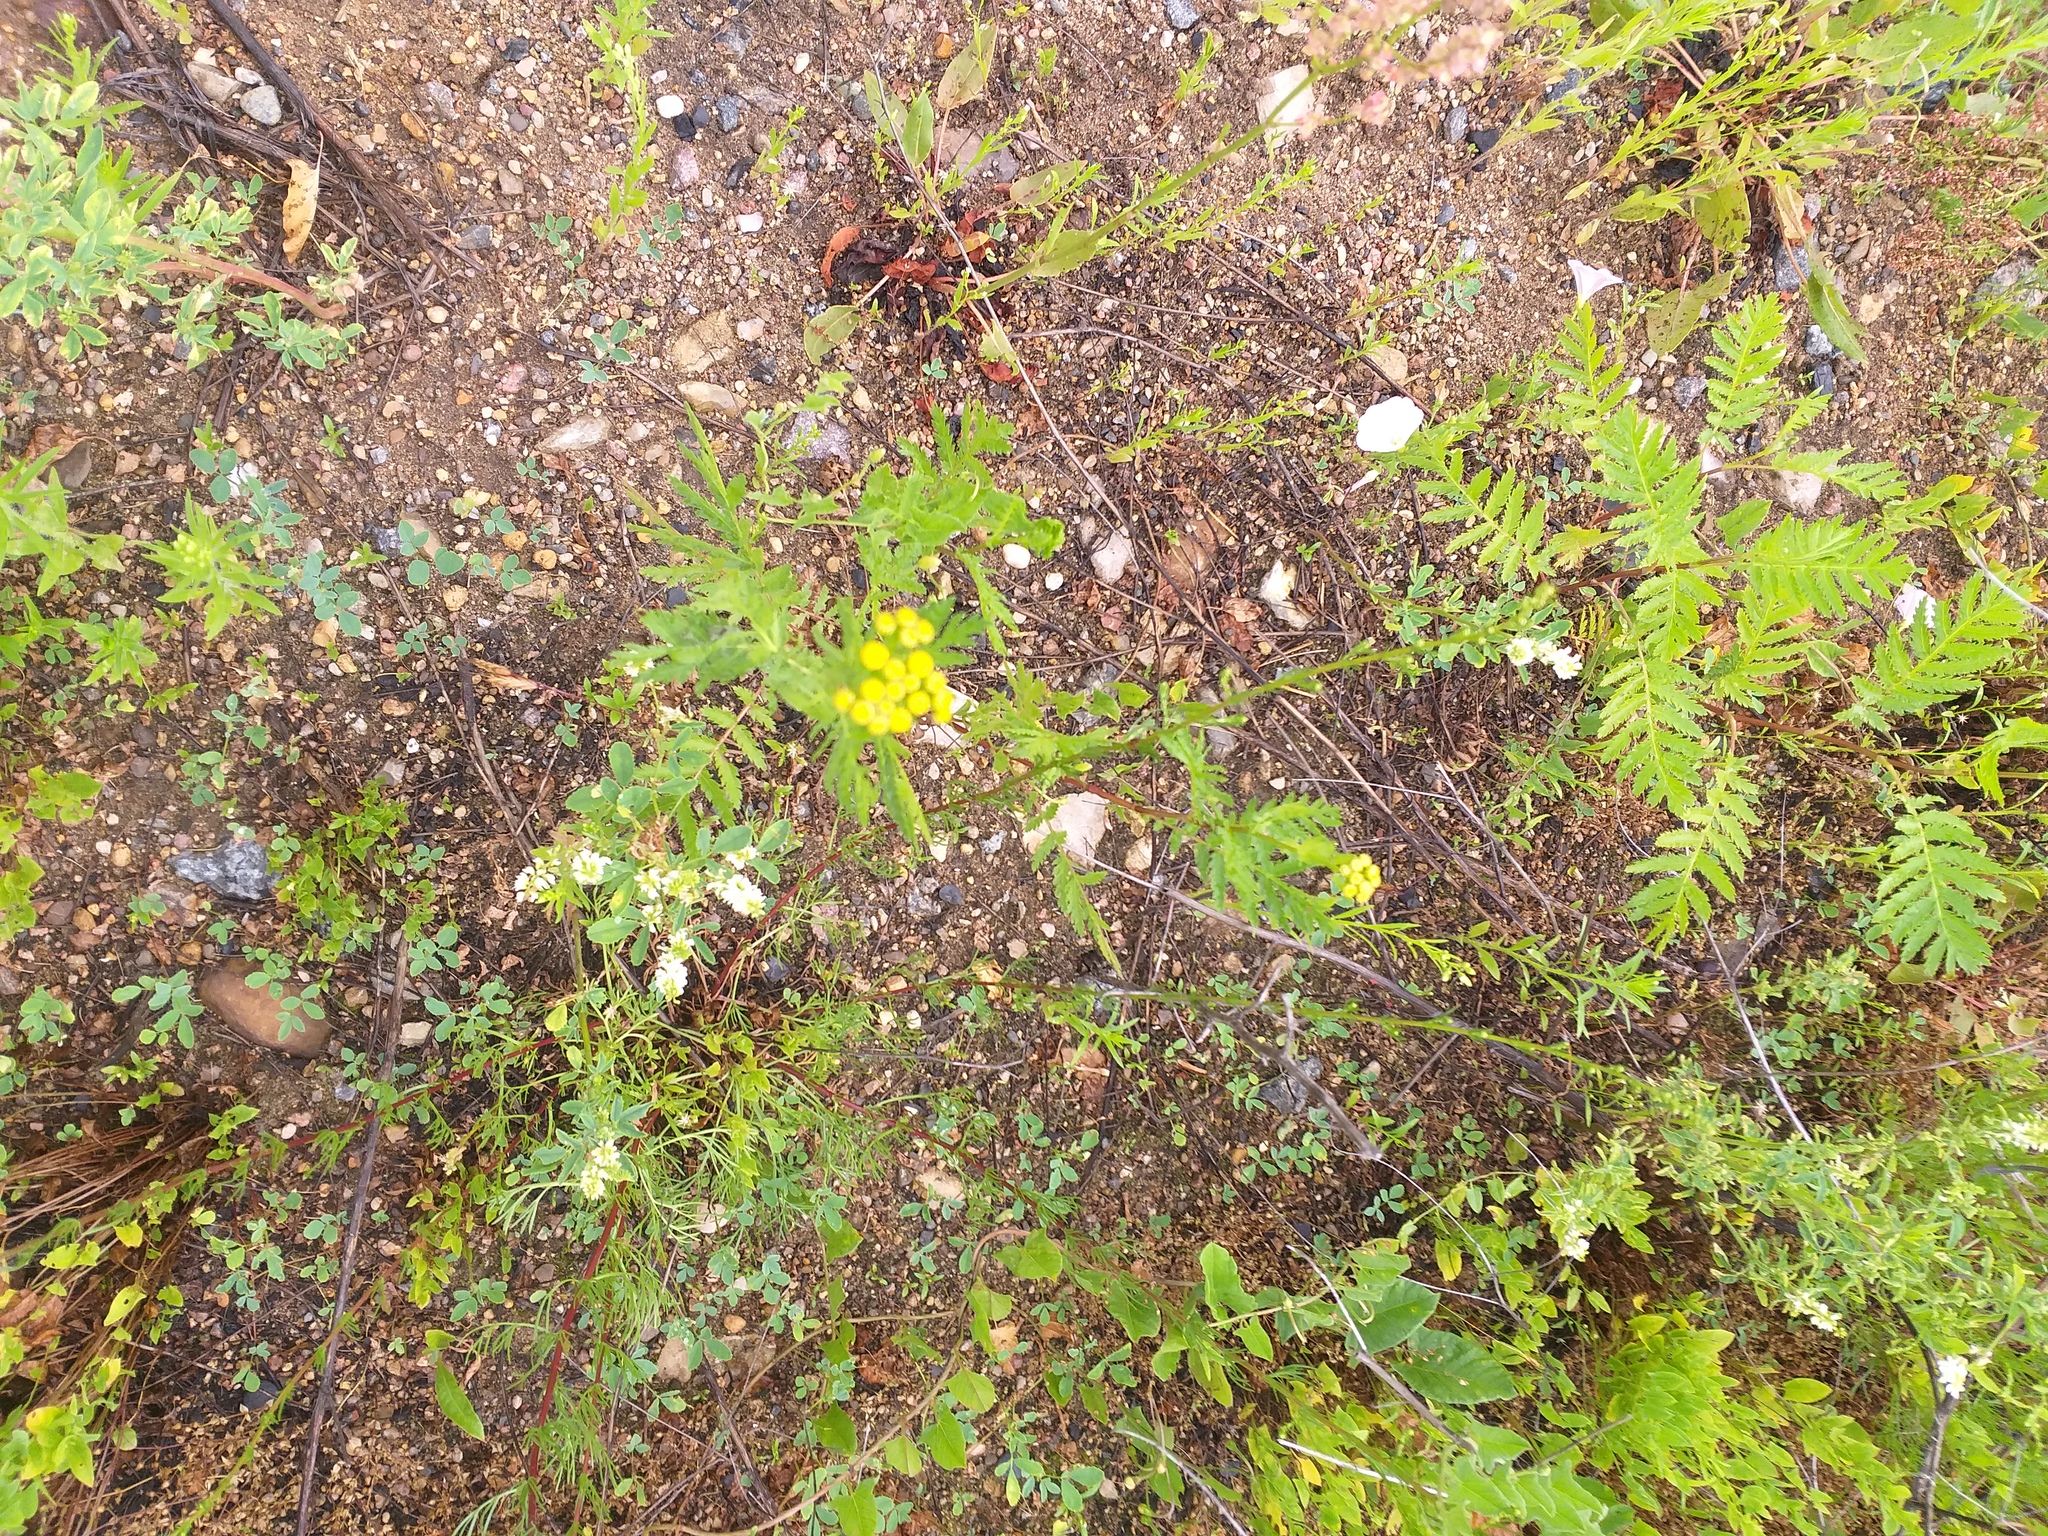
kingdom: Plantae
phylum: Tracheophyta
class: Magnoliopsida
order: Asterales
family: Asteraceae
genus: Tanacetum
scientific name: Tanacetum vulgare
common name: Common tansy
